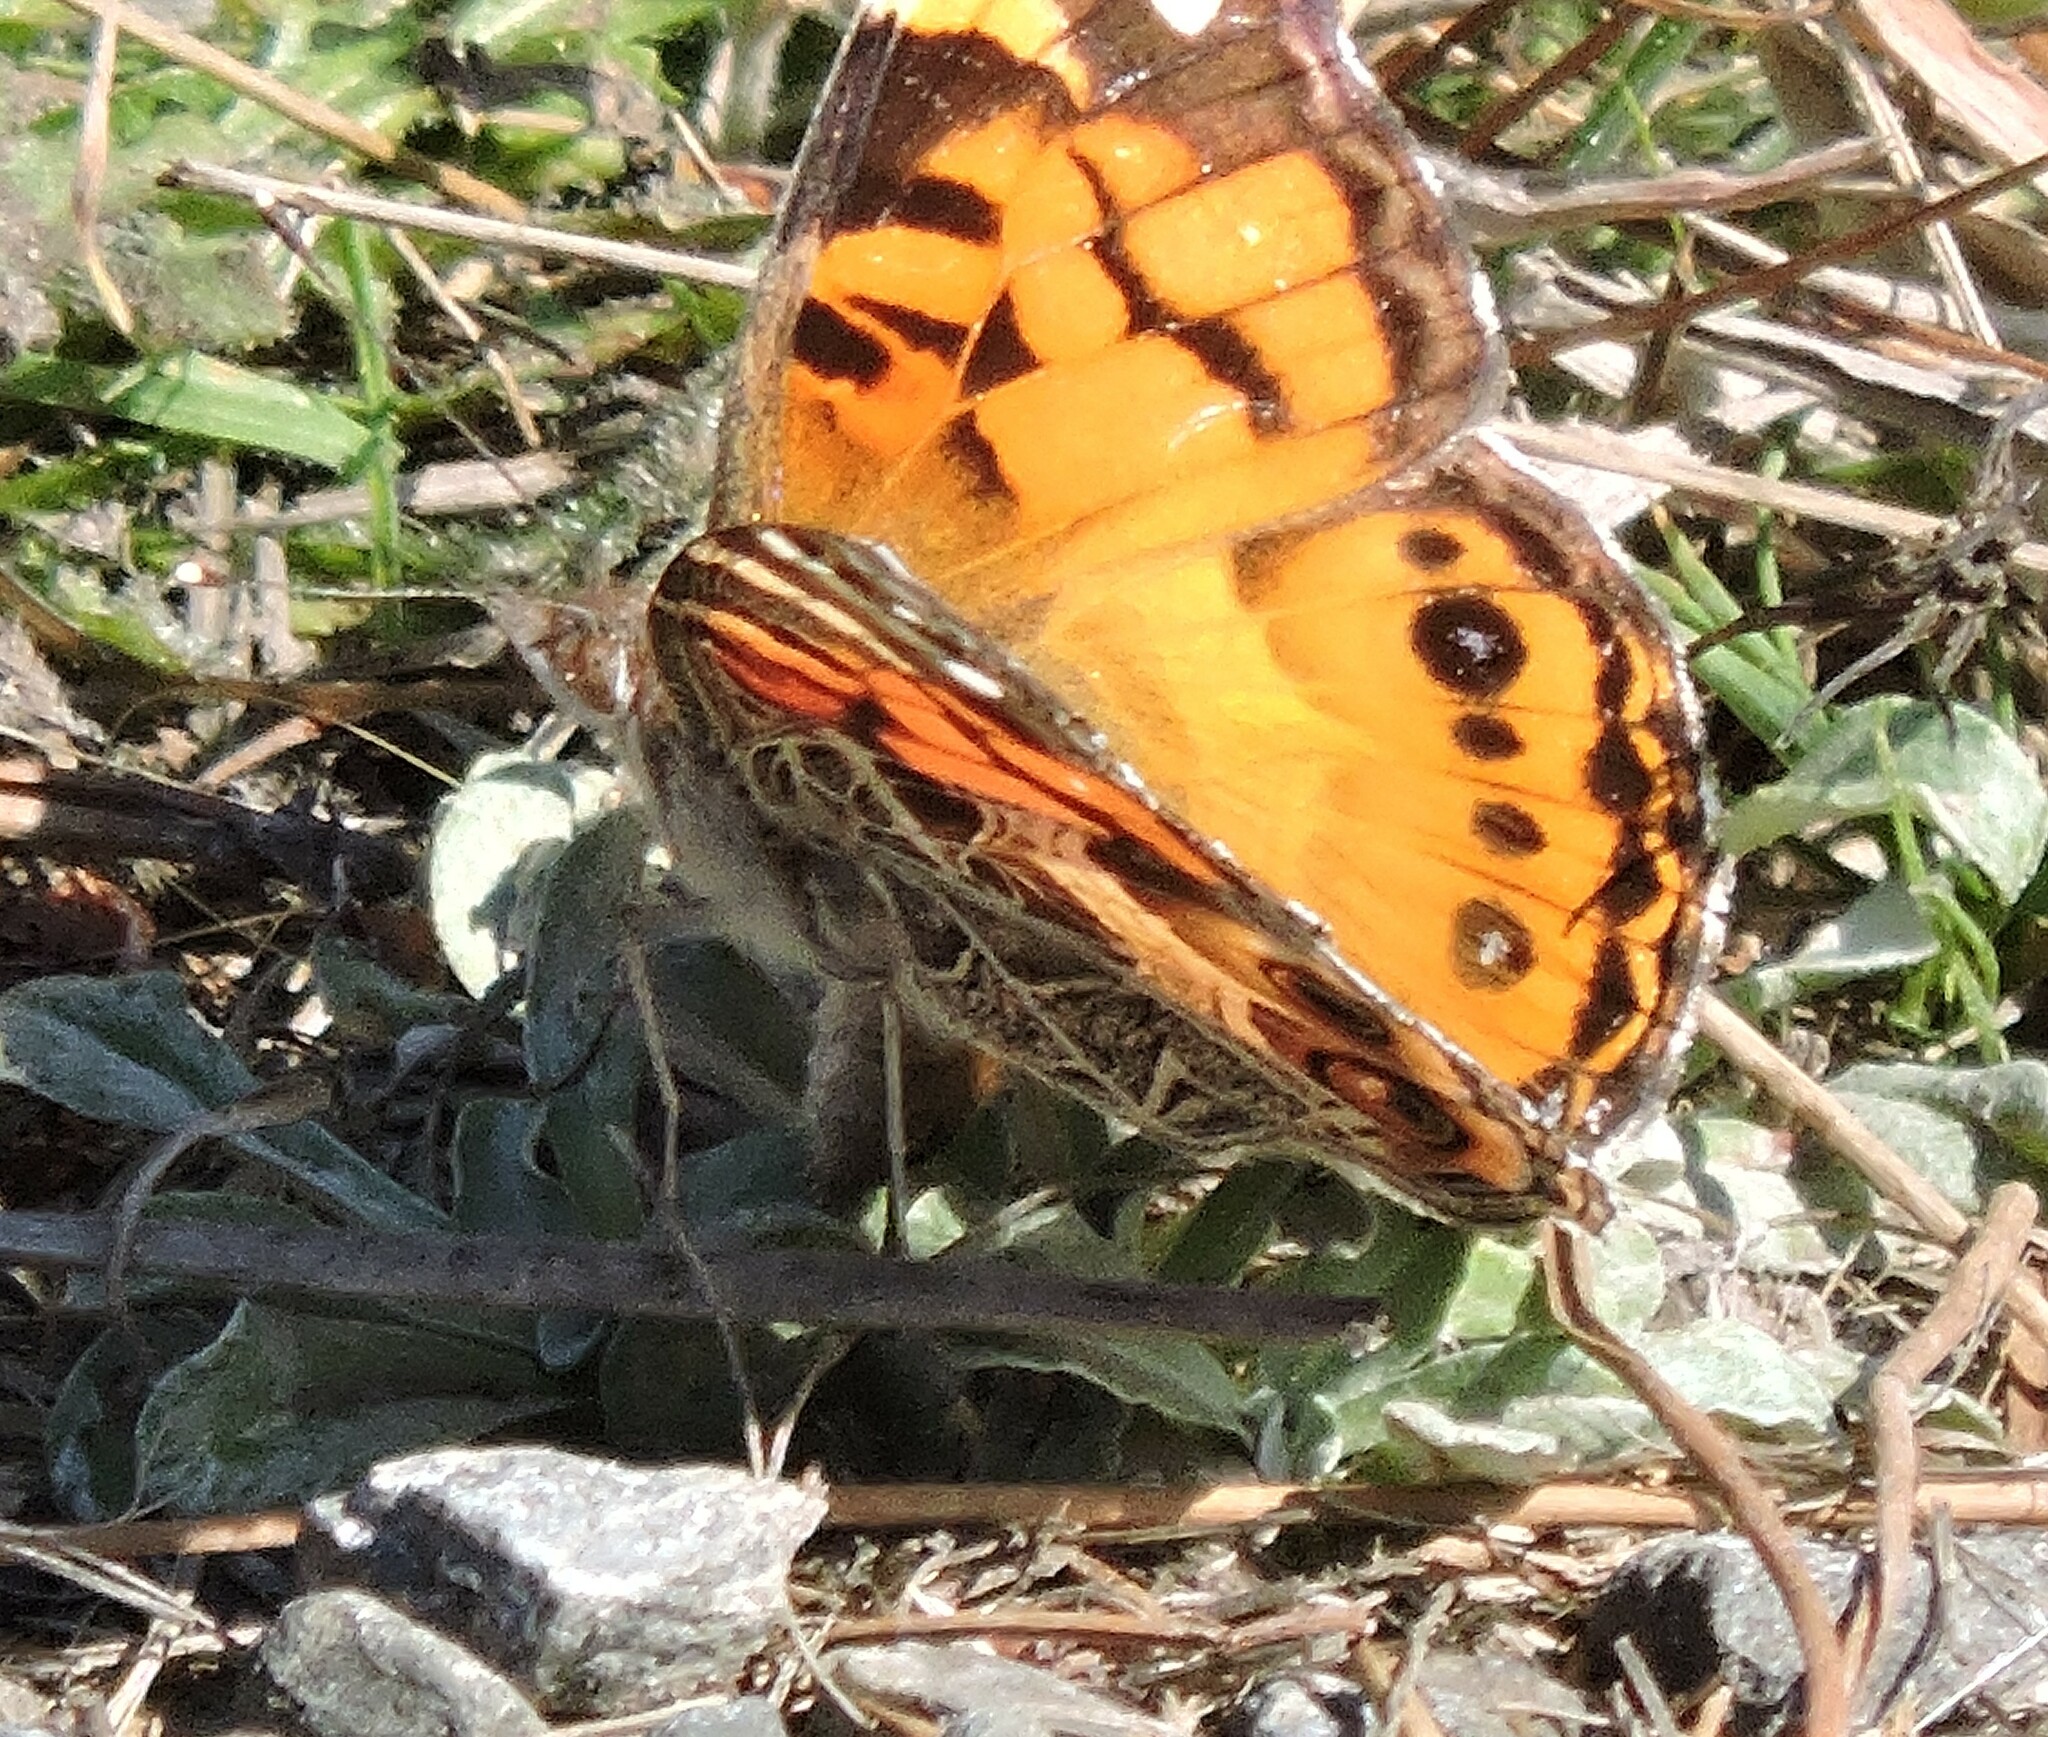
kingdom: Animalia
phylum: Arthropoda
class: Insecta
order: Lepidoptera
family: Nymphalidae
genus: Vanessa
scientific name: Vanessa virginiensis
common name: American lady
